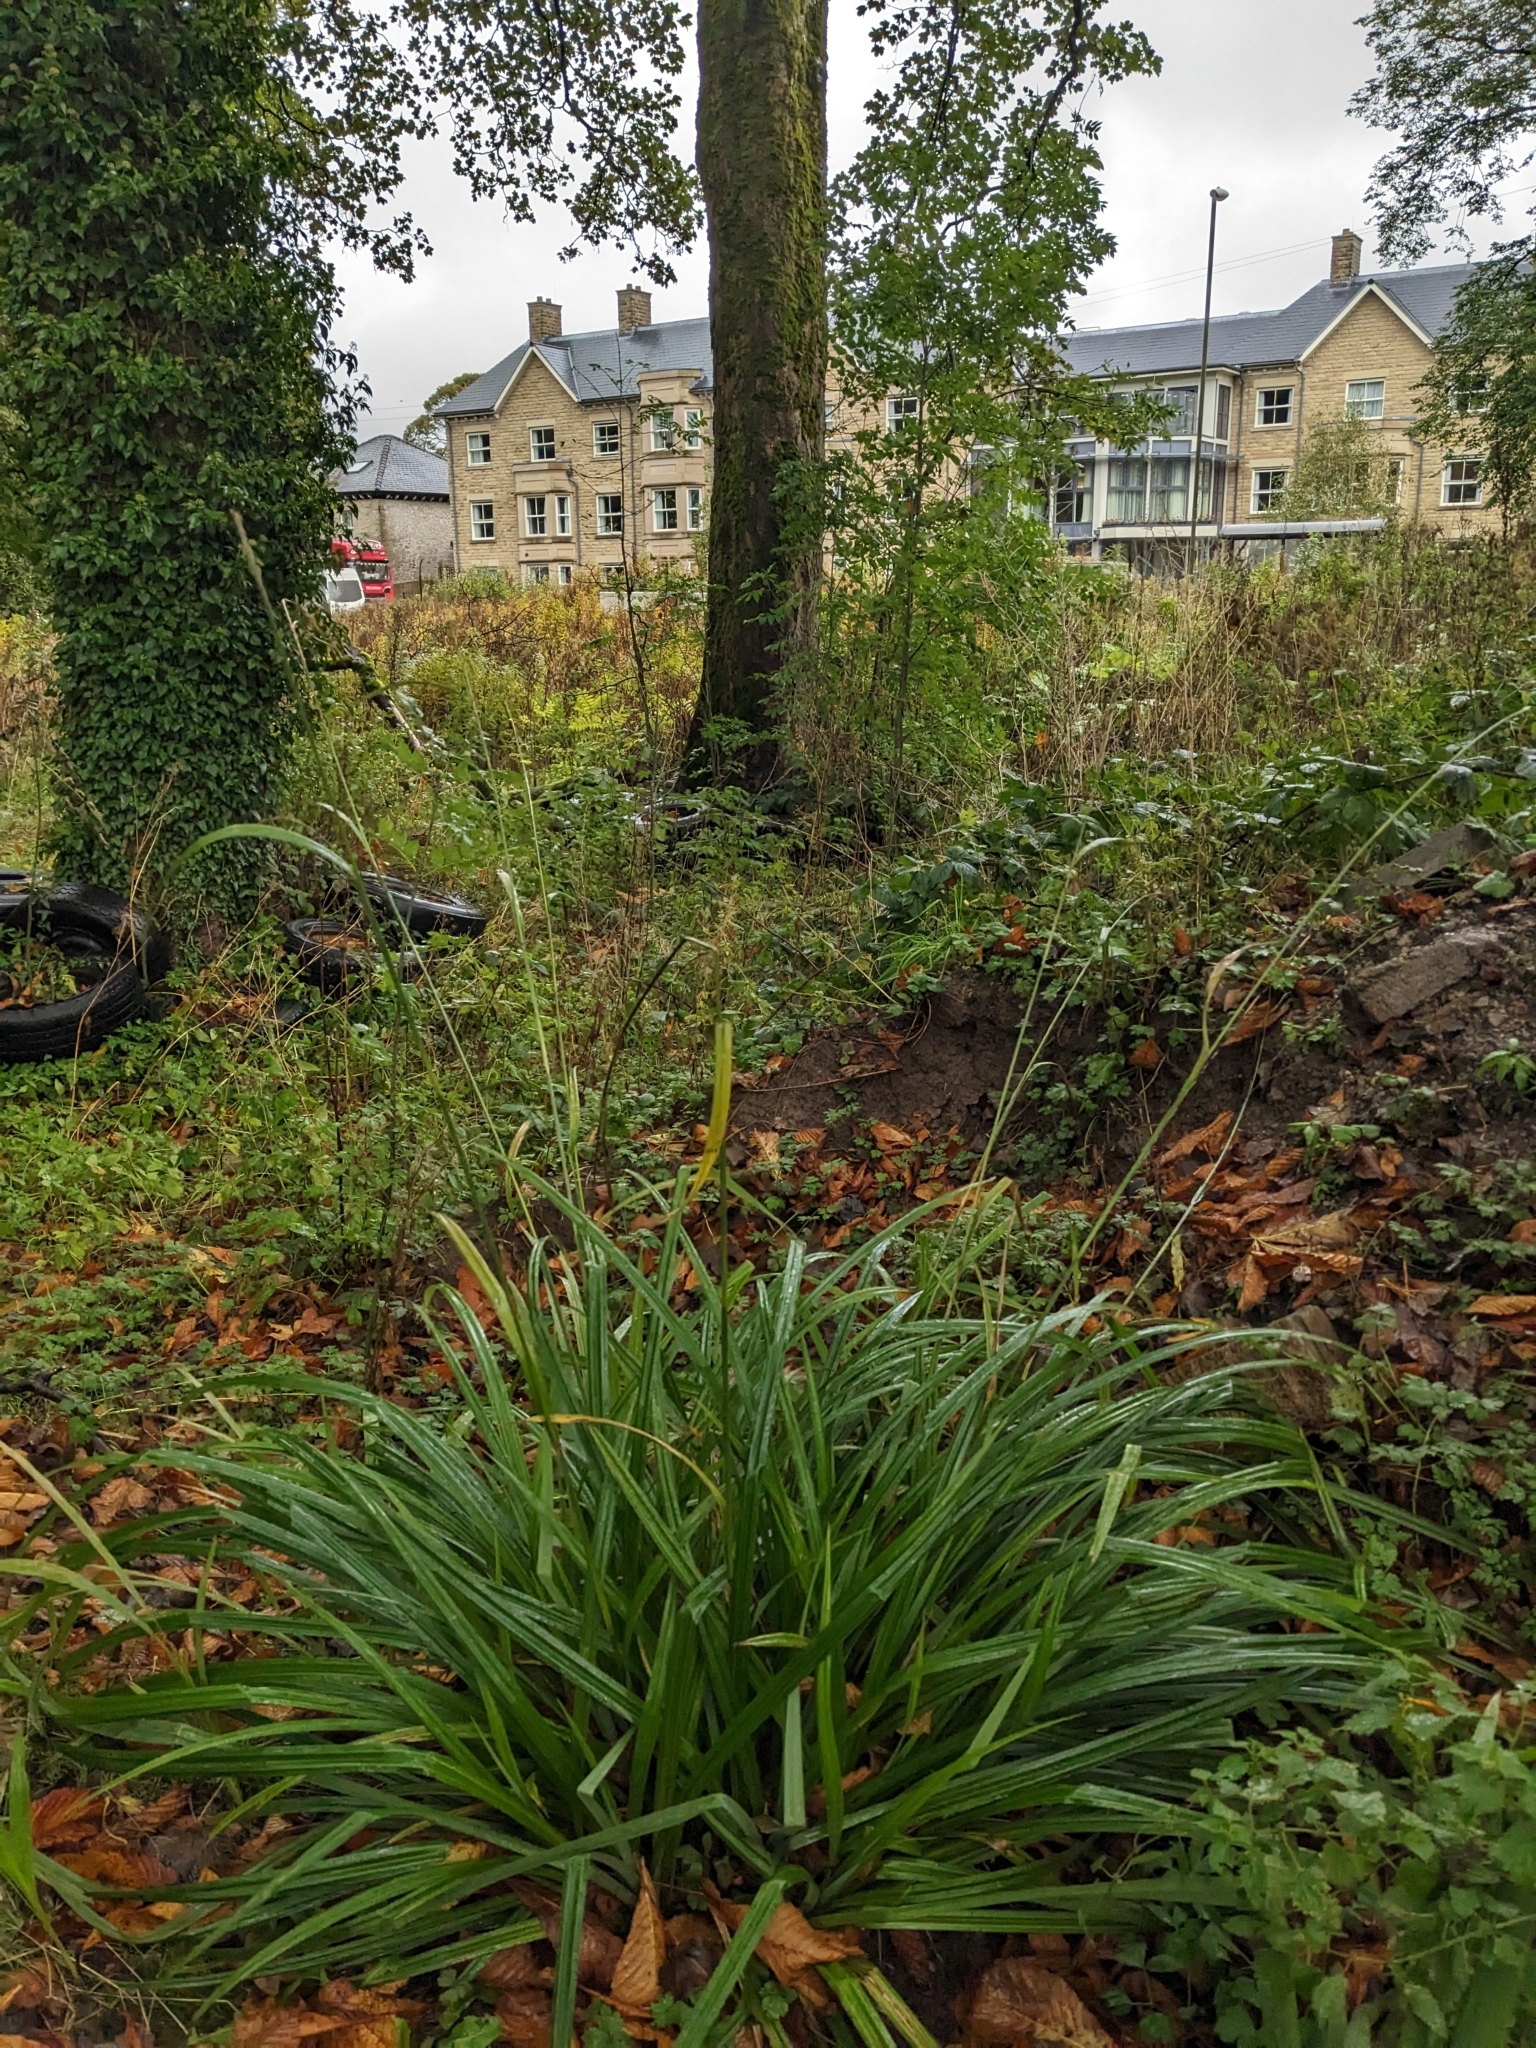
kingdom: Plantae
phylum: Tracheophyta
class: Liliopsida
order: Poales
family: Cyperaceae
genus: Carex
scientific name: Carex pendula
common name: Pendulous sedge
